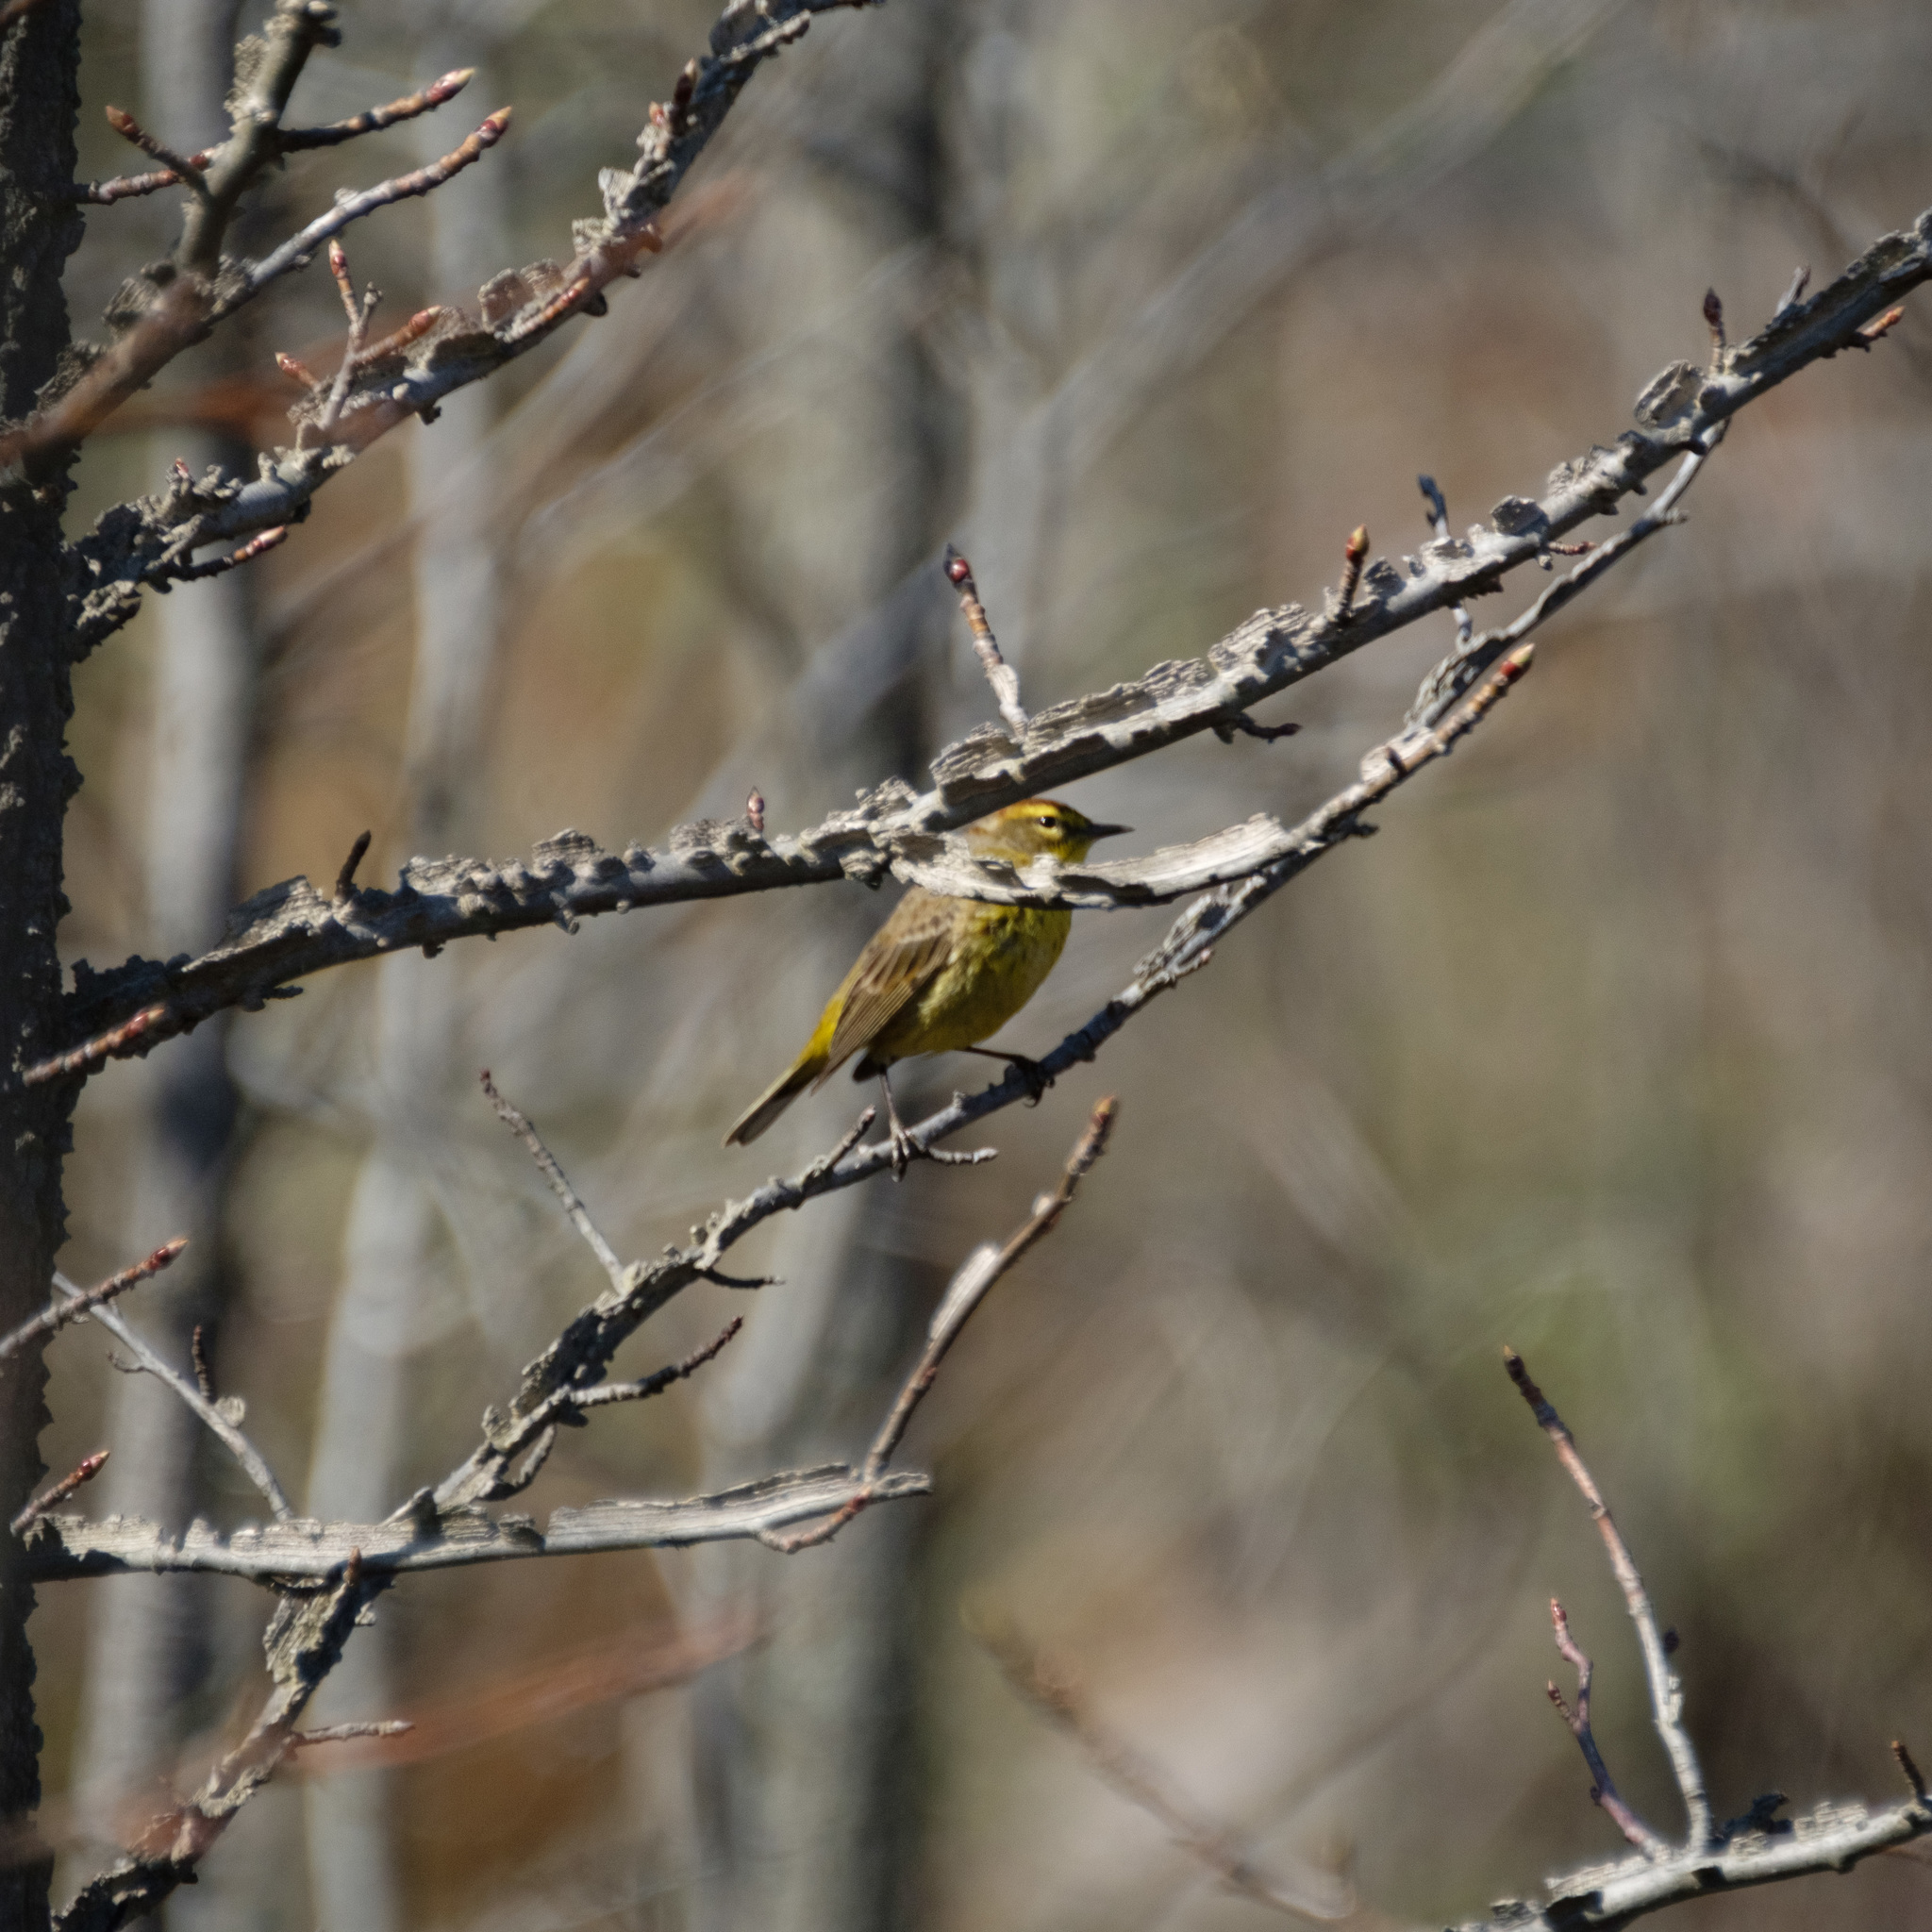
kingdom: Plantae
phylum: Tracheophyta
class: Magnoliopsida
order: Saxifragales
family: Altingiaceae
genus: Liquidambar
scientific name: Liquidambar styraciflua
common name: Sweet gum
